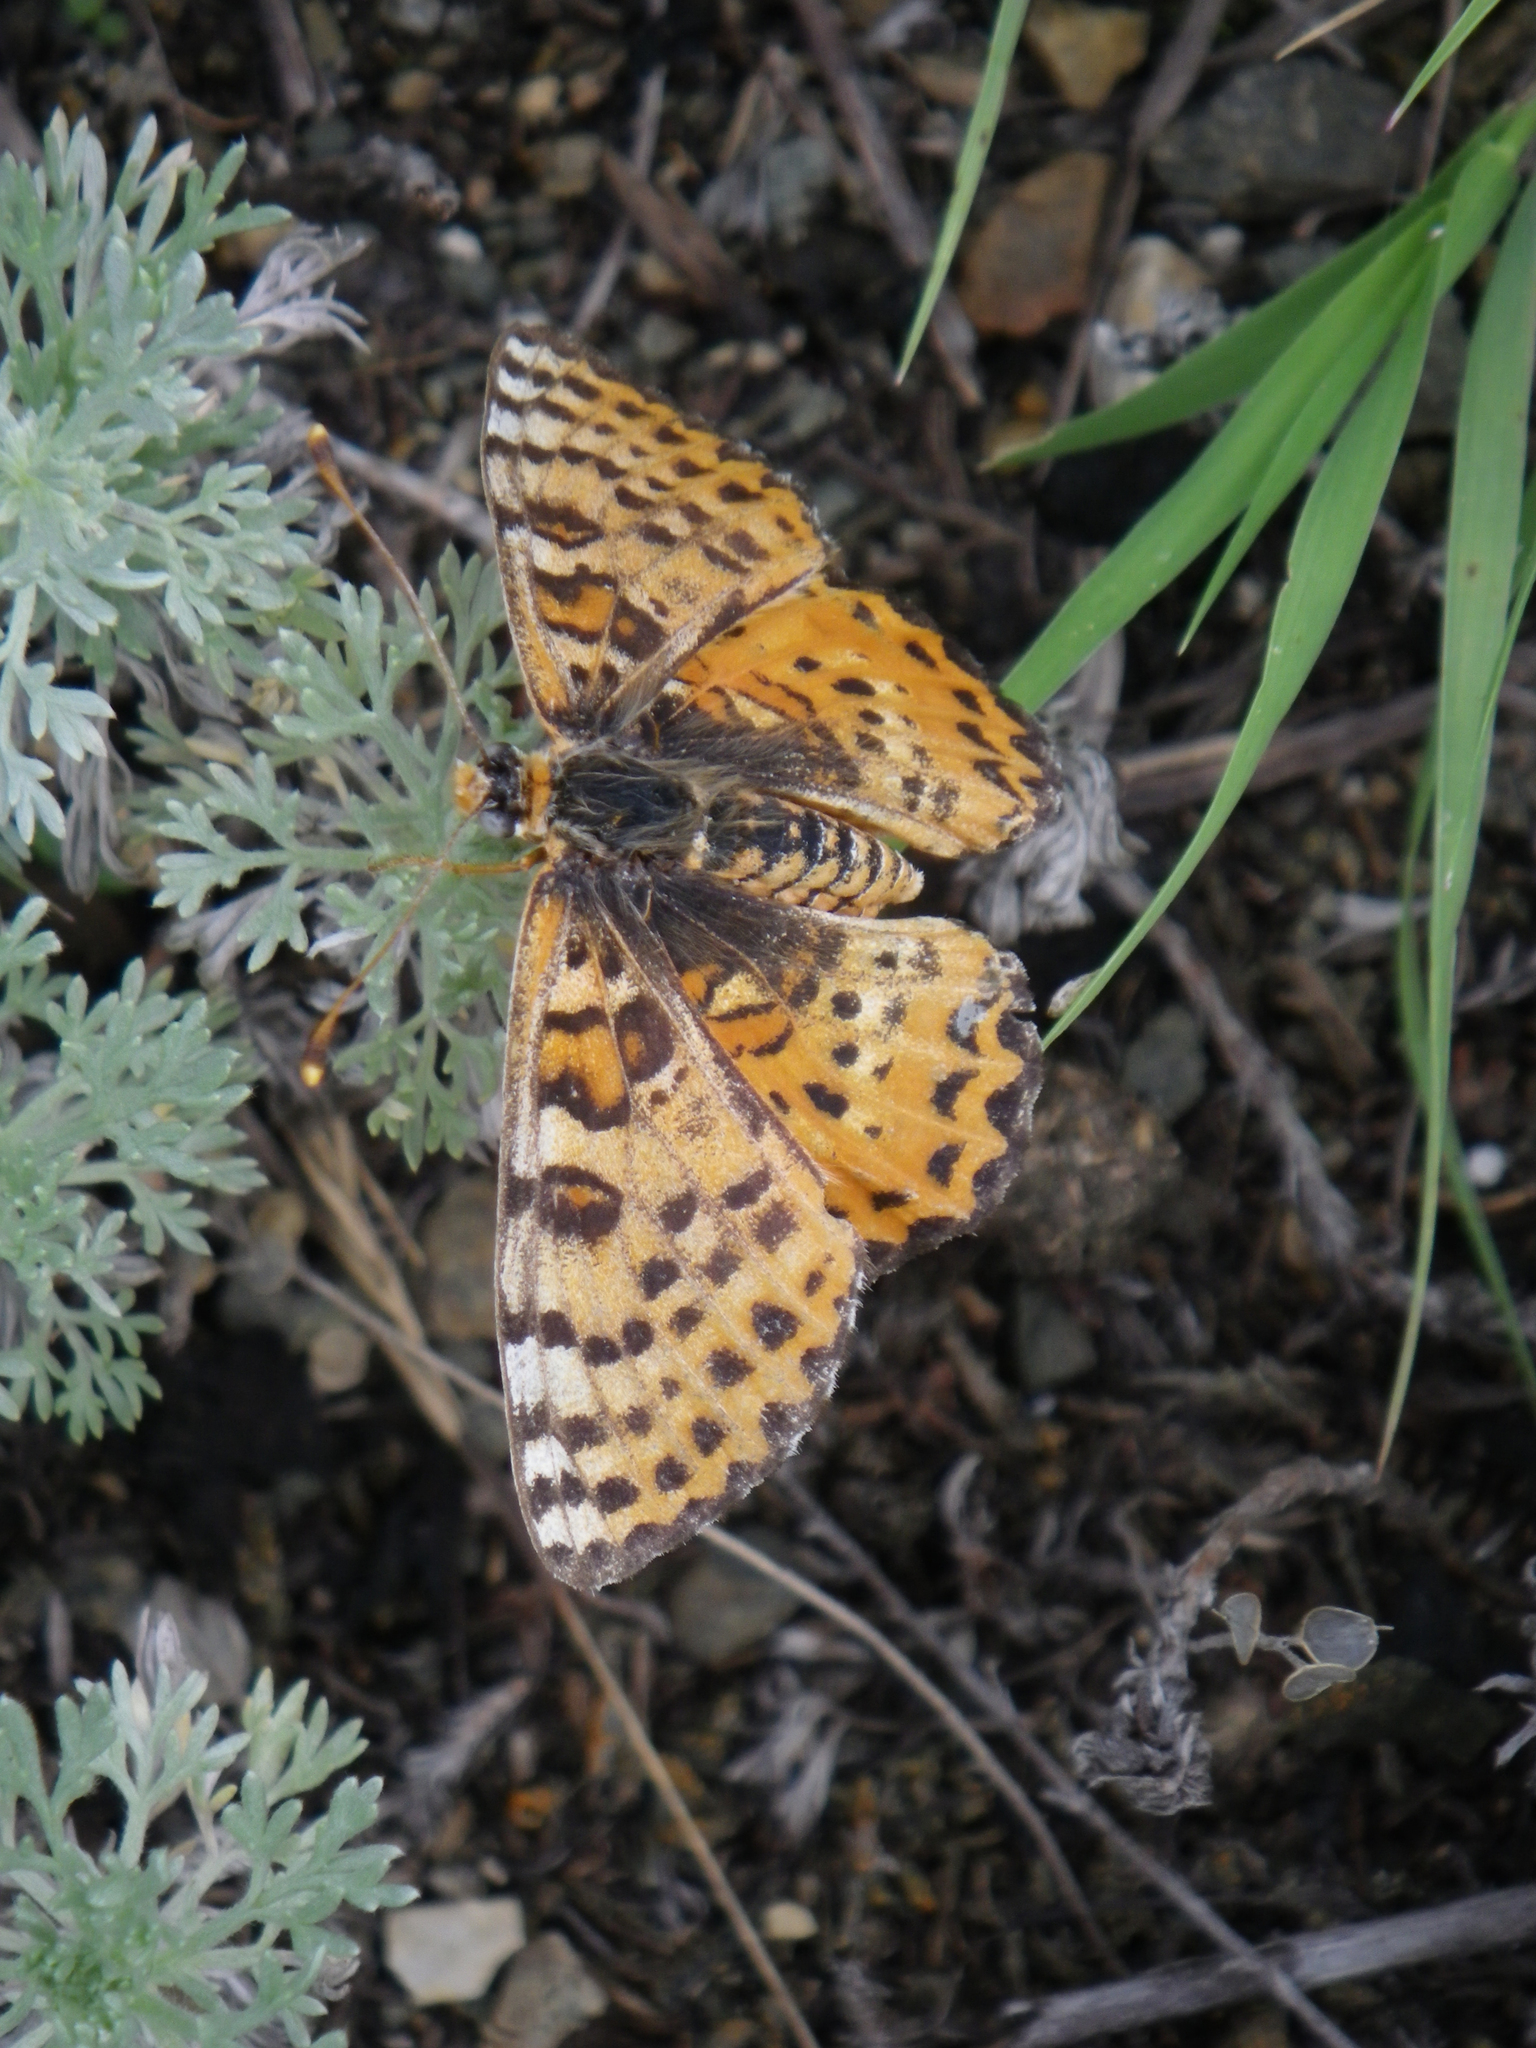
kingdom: Animalia
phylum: Arthropoda
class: Insecta
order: Lepidoptera
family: Nymphalidae
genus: Melitaea
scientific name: Melitaea didyma
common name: Spotted fritillary
